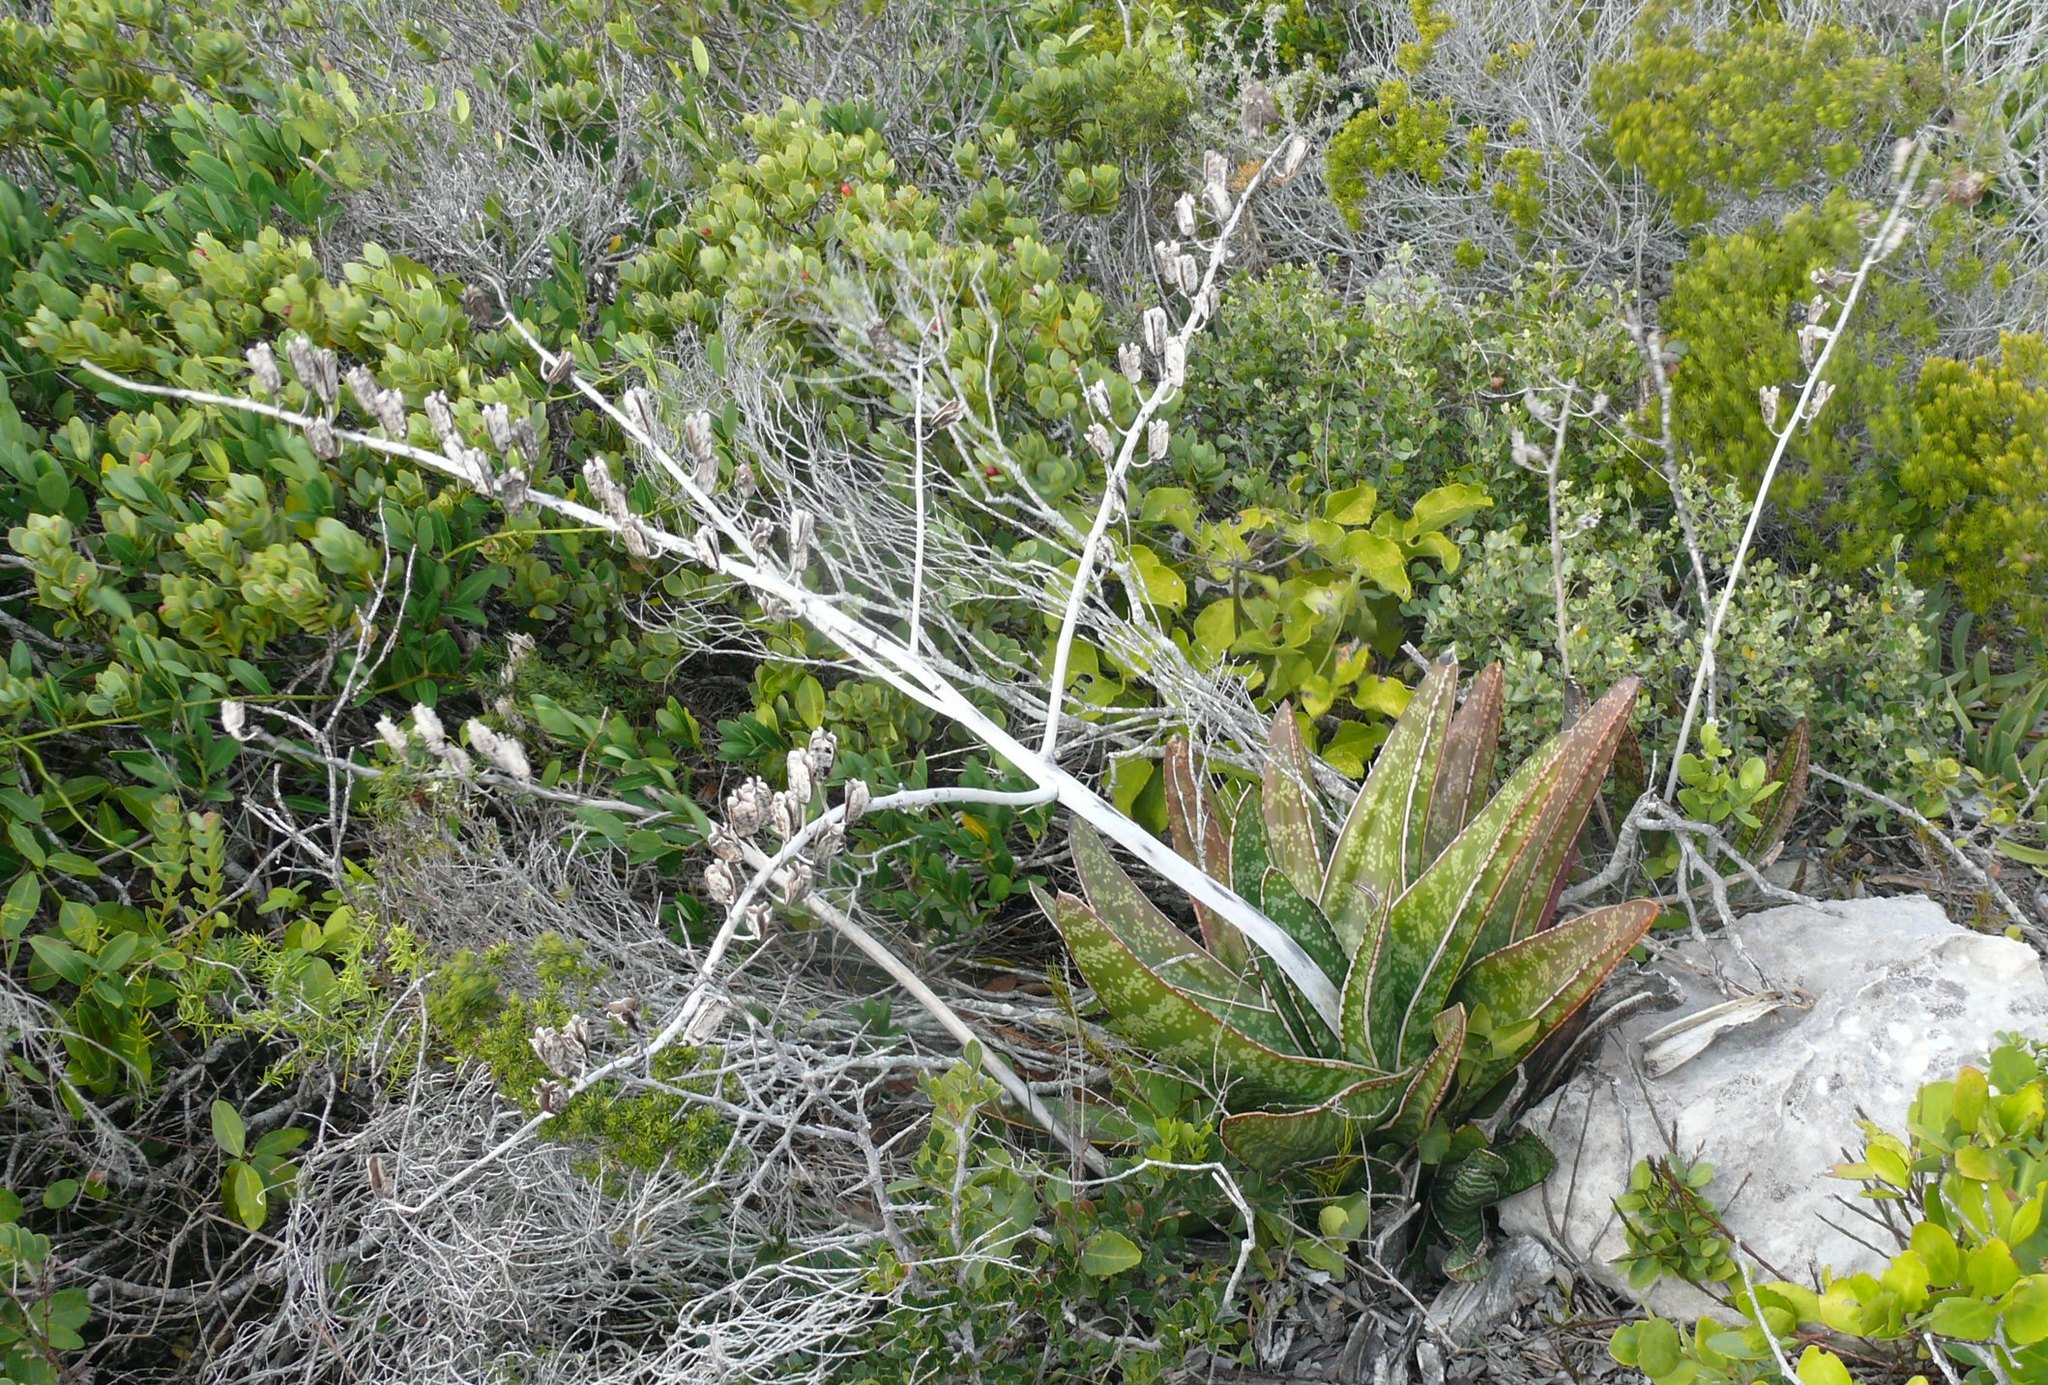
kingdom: Plantae
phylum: Tracheophyta
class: Liliopsida
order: Asparagales
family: Asphodelaceae
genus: Gasteria
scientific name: Gasteria acinacifolia
